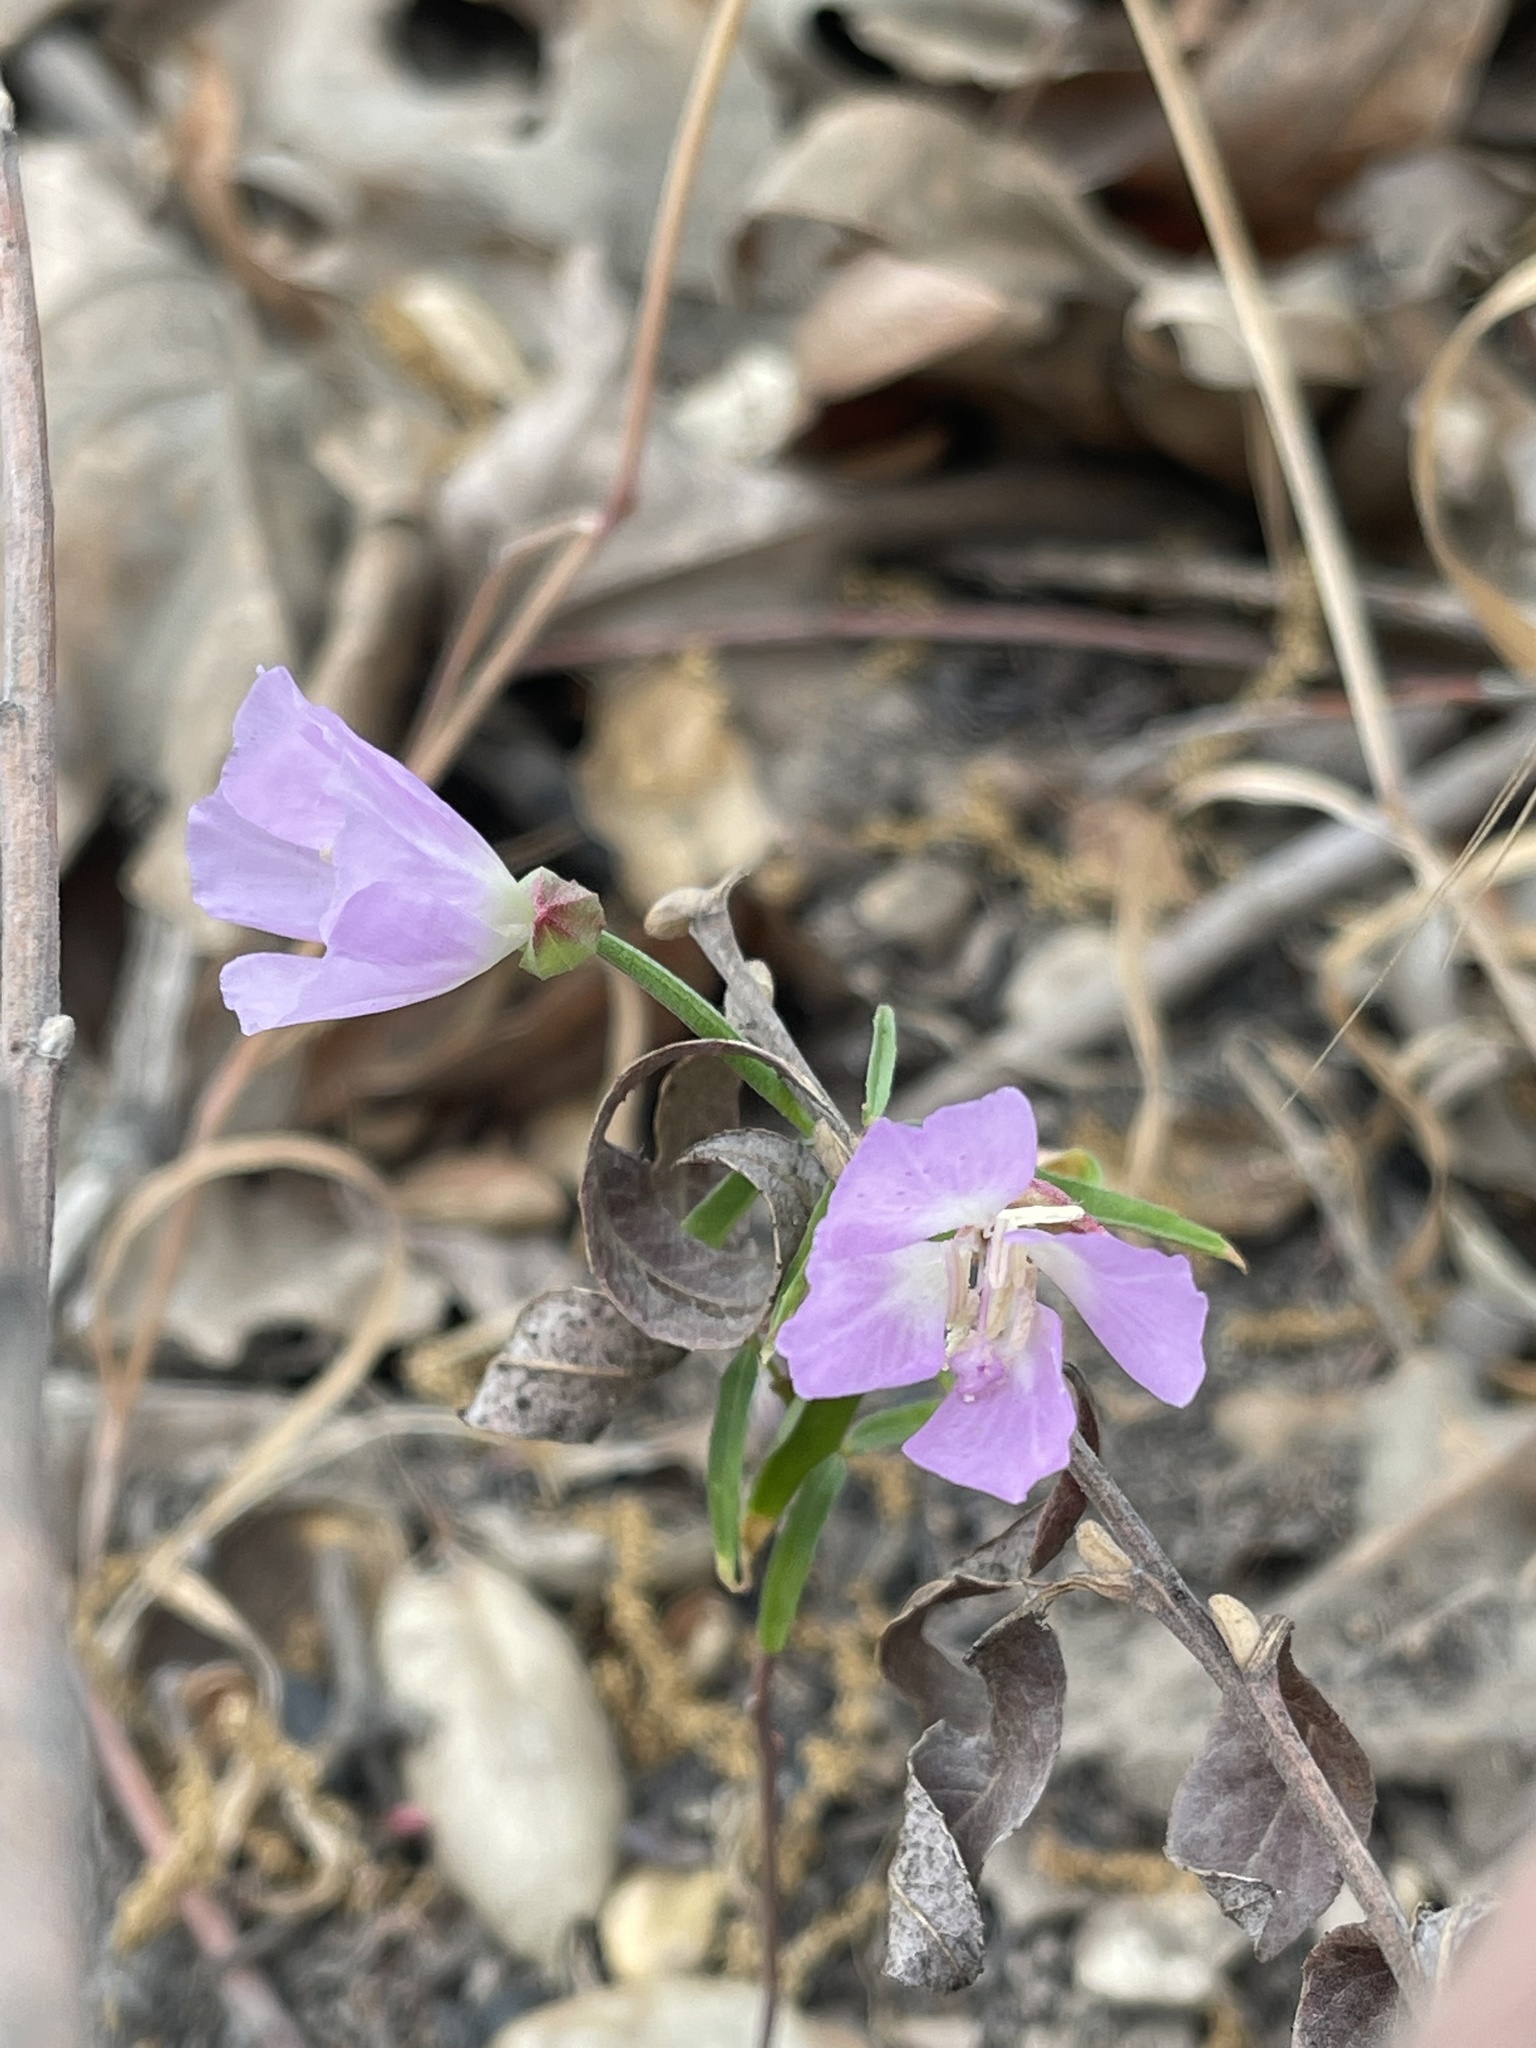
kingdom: Plantae
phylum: Tracheophyta
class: Magnoliopsida
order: Myrtales
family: Onagraceae
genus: Clarkia
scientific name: Clarkia bottae
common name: Punch-bowl godetia
